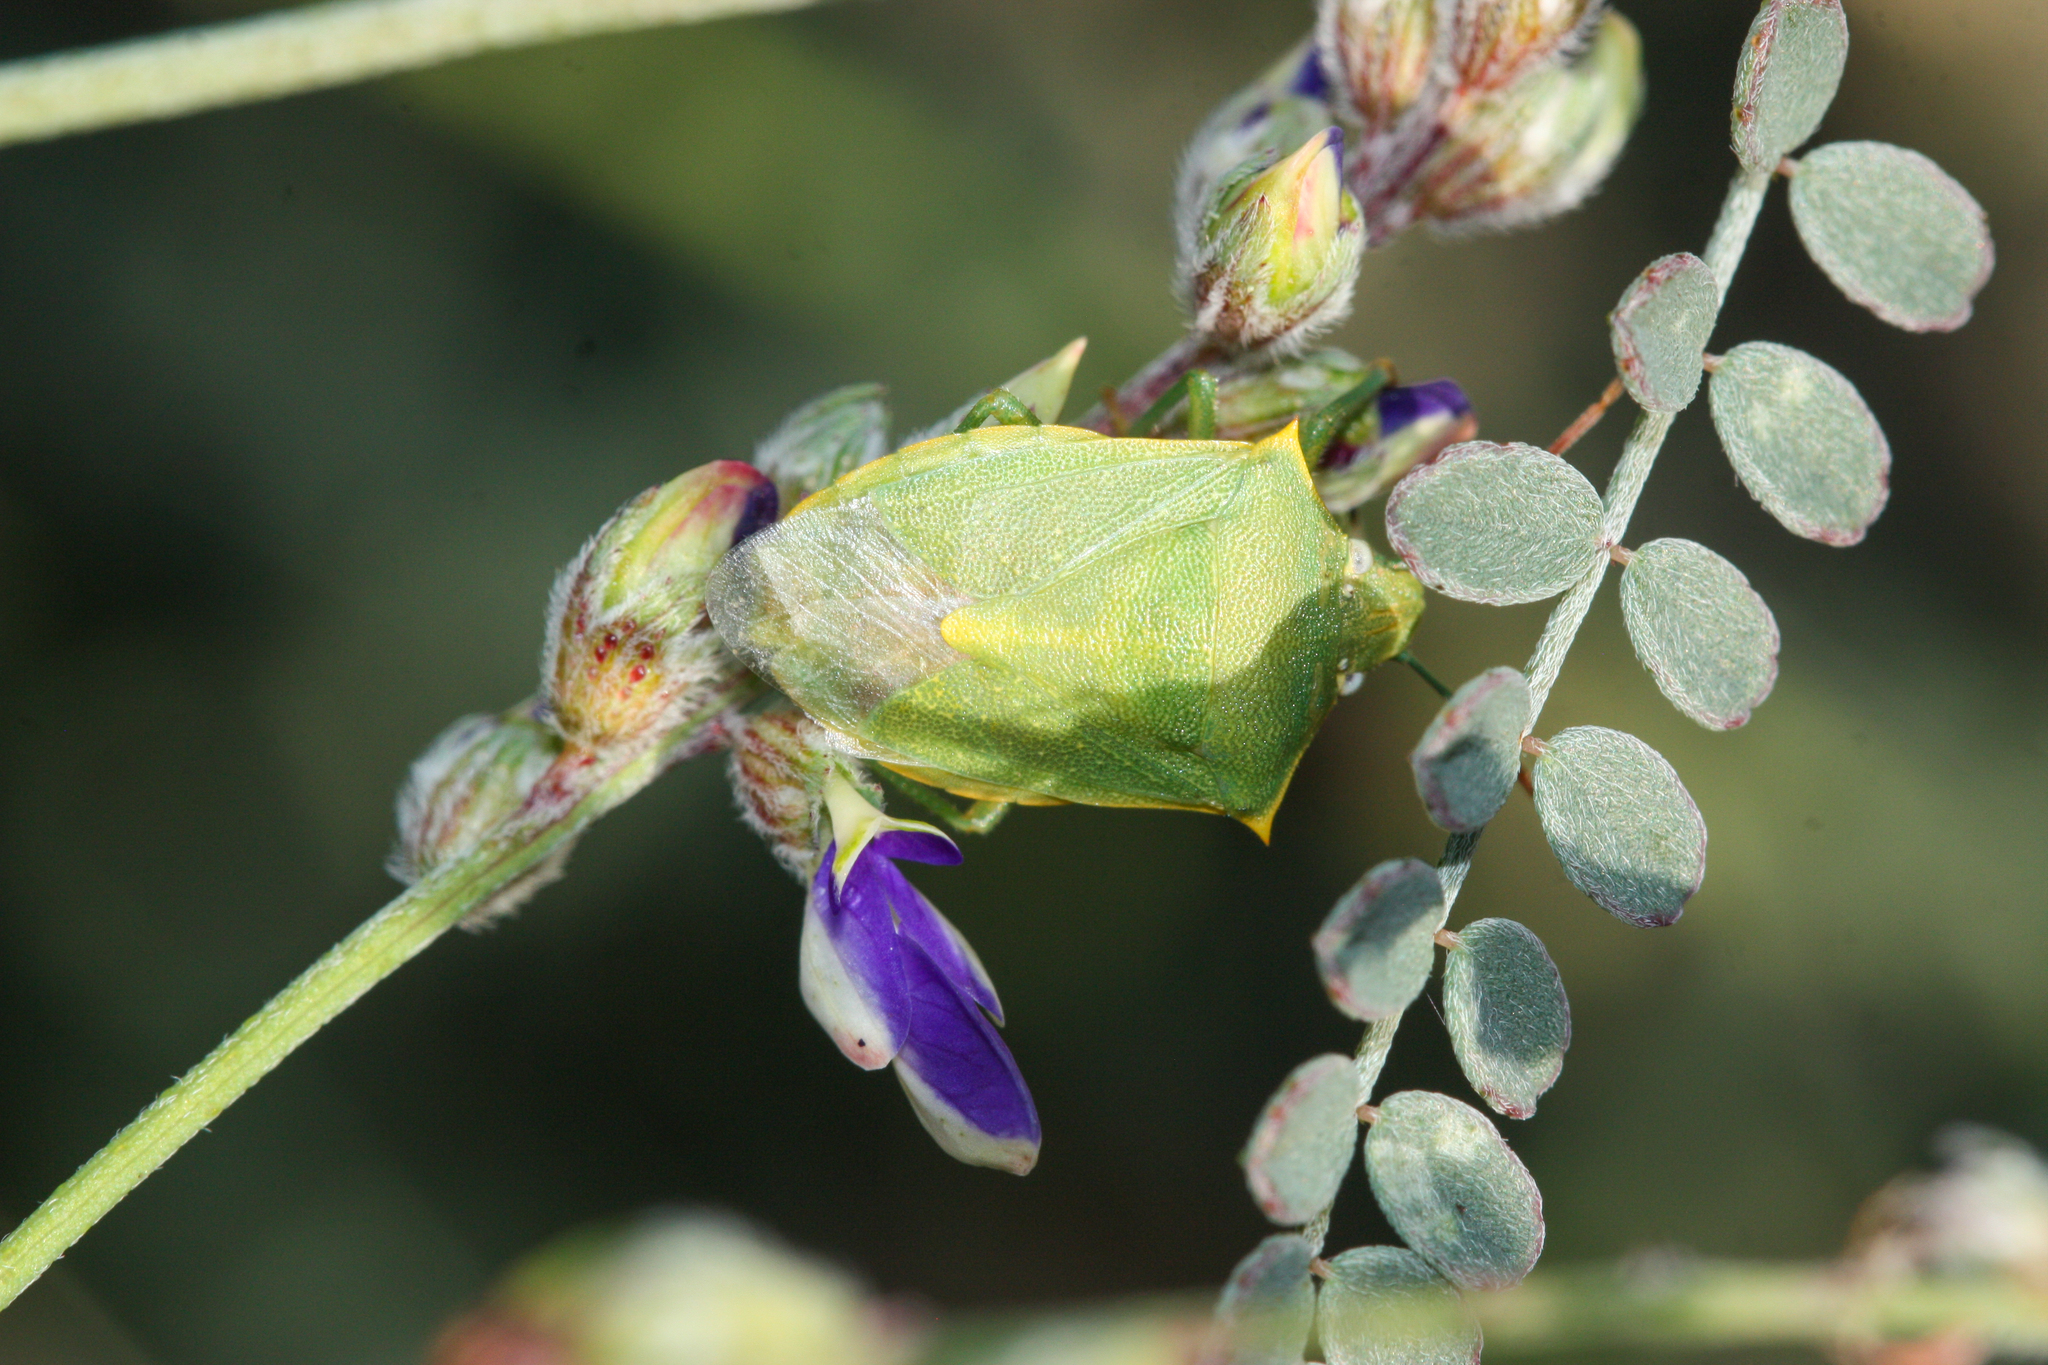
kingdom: Animalia
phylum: Arthropoda
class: Insecta
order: Hemiptera
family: Pentatomidae
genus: Thyanta
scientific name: Thyanta accerra
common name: Stink bug
